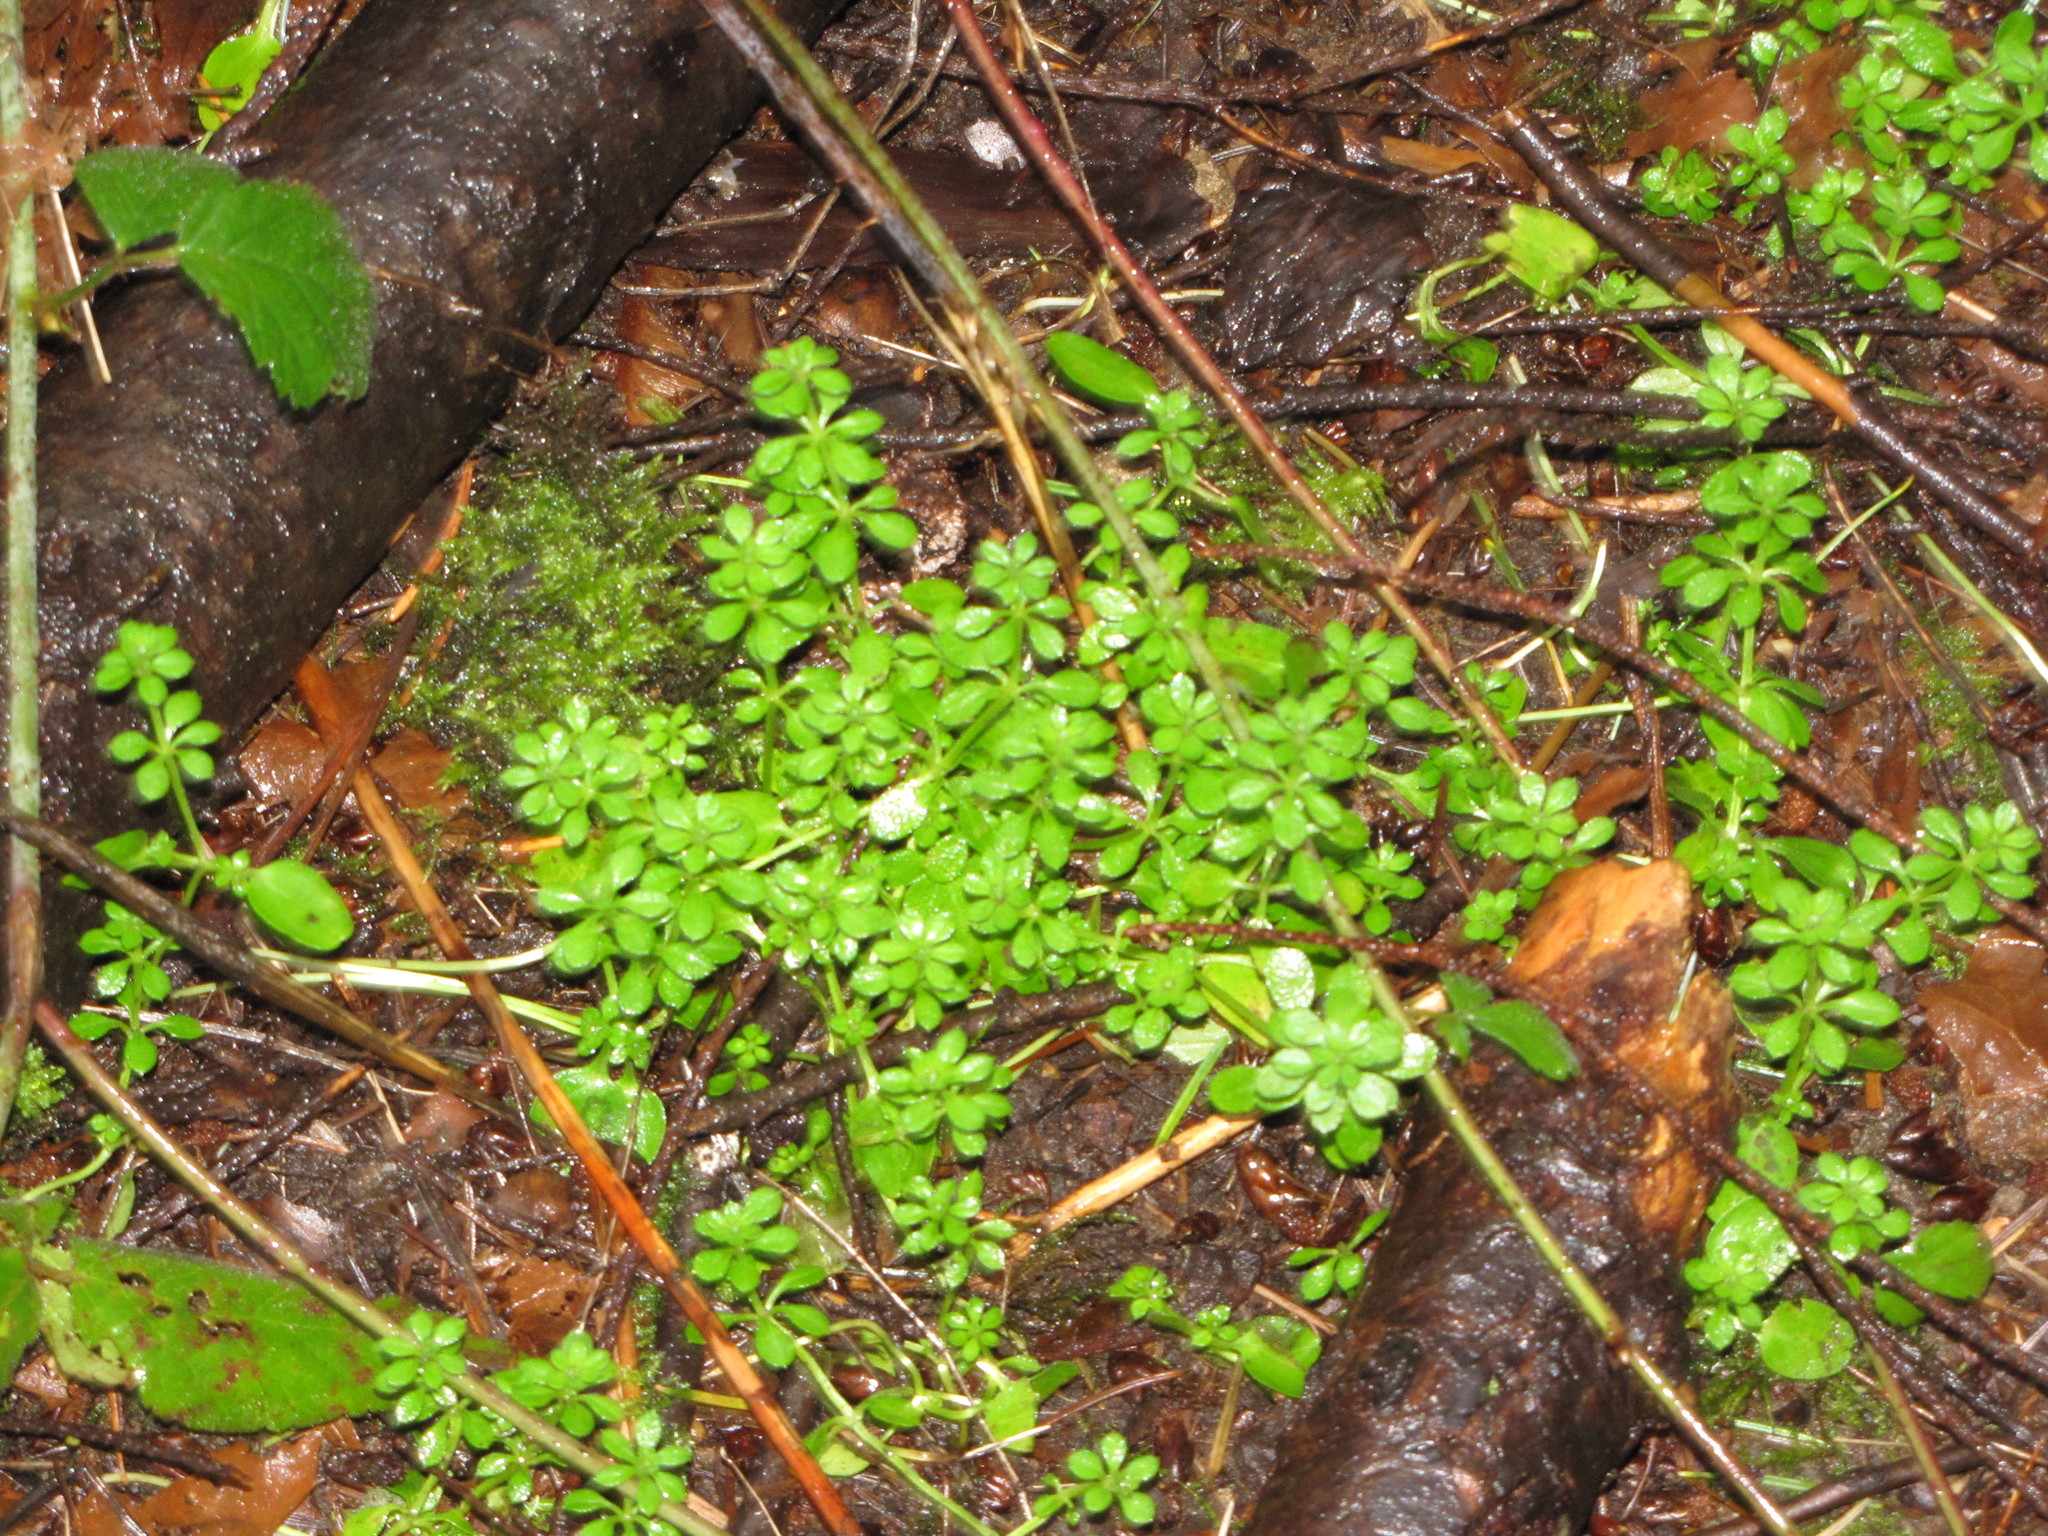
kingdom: Plantae
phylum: Tracheophyta
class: Magnoliopsida
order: Gentianales
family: Rubiaceae
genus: Galium
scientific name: Galium aparine
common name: Cleavers
